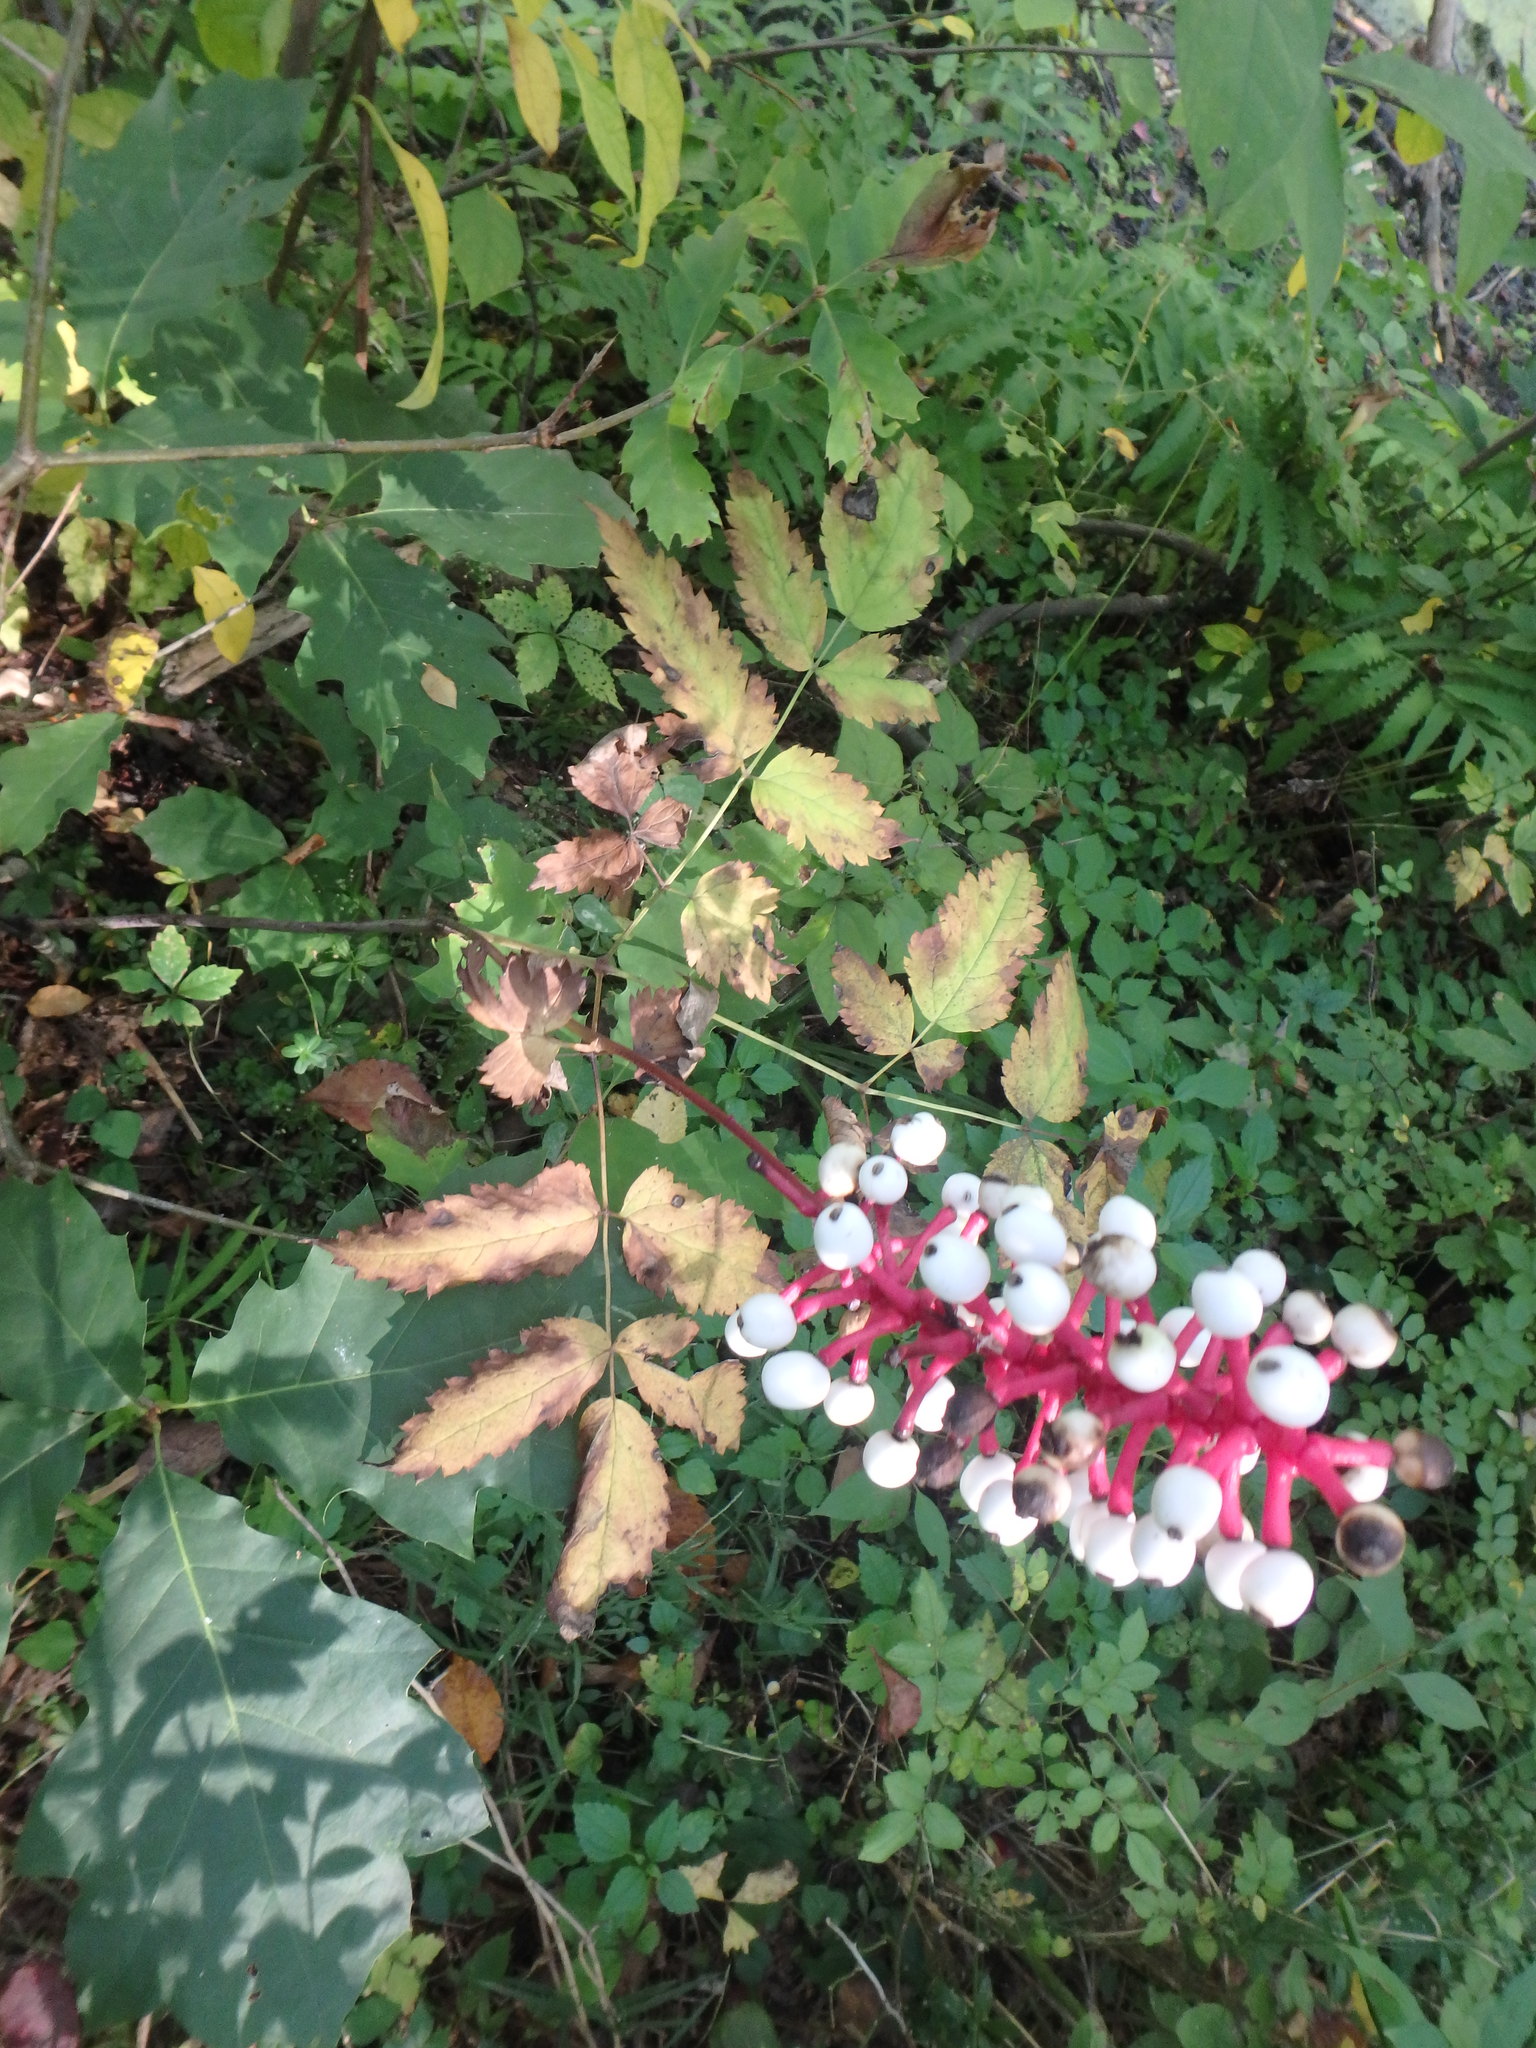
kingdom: Plantae
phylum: Tracheophyta
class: Magnoliopsida
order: Ranunculales
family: Ranunculaceae
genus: Actaea
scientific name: Actaea pachypoda
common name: Doll's-eyes
